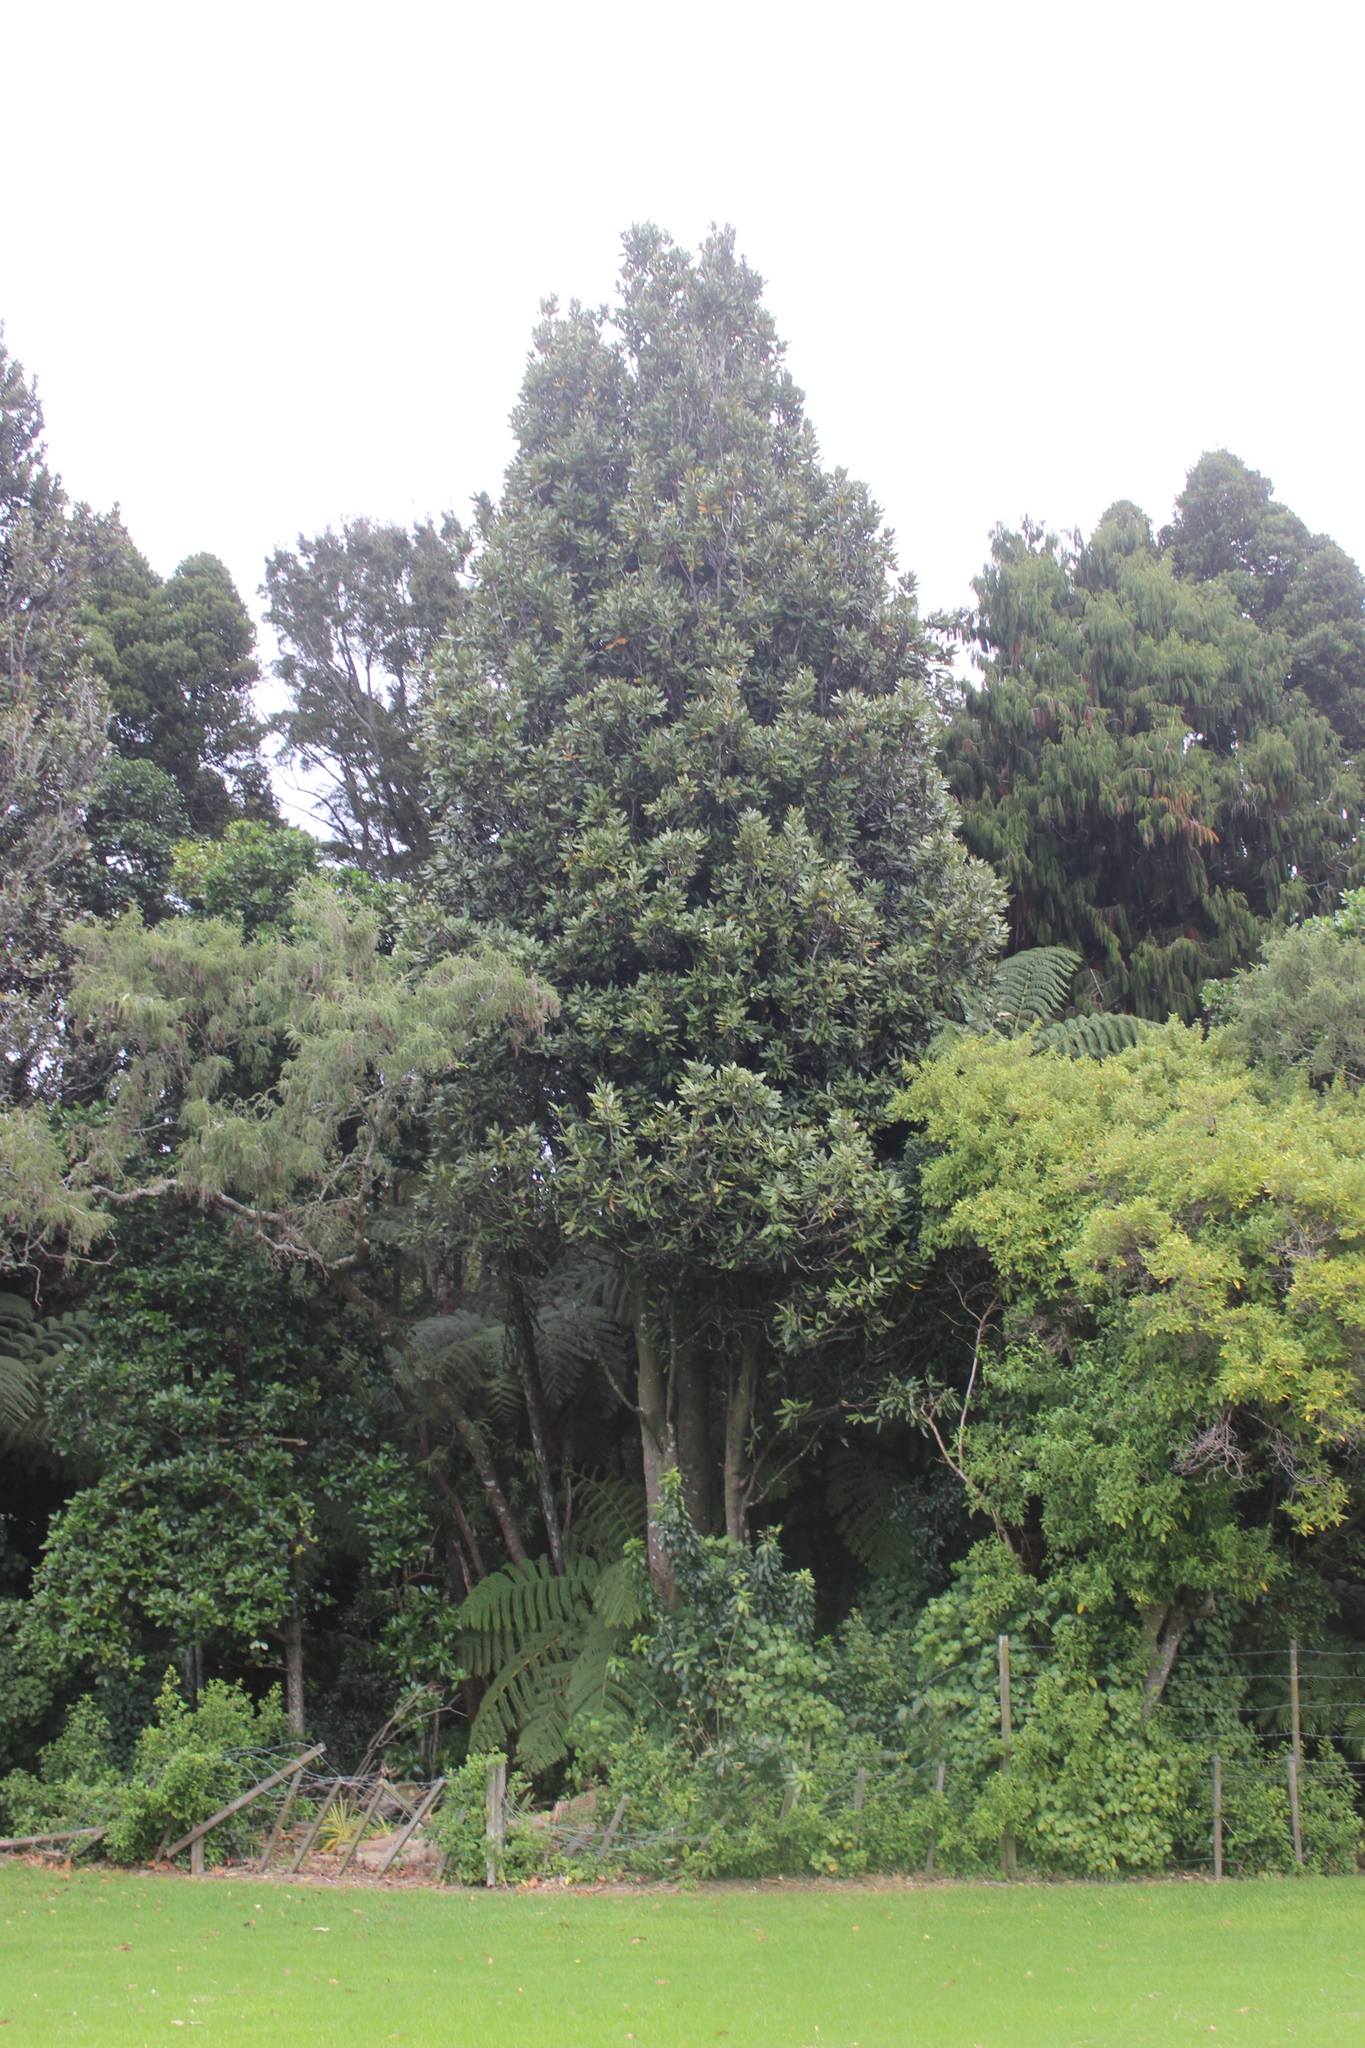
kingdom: Plantae
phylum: Tracheophyta
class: Magnoliopsida
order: Proteales
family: Proteaceae
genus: Knightia
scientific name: Knightia excelsa
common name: New zealand-honeysuckle
